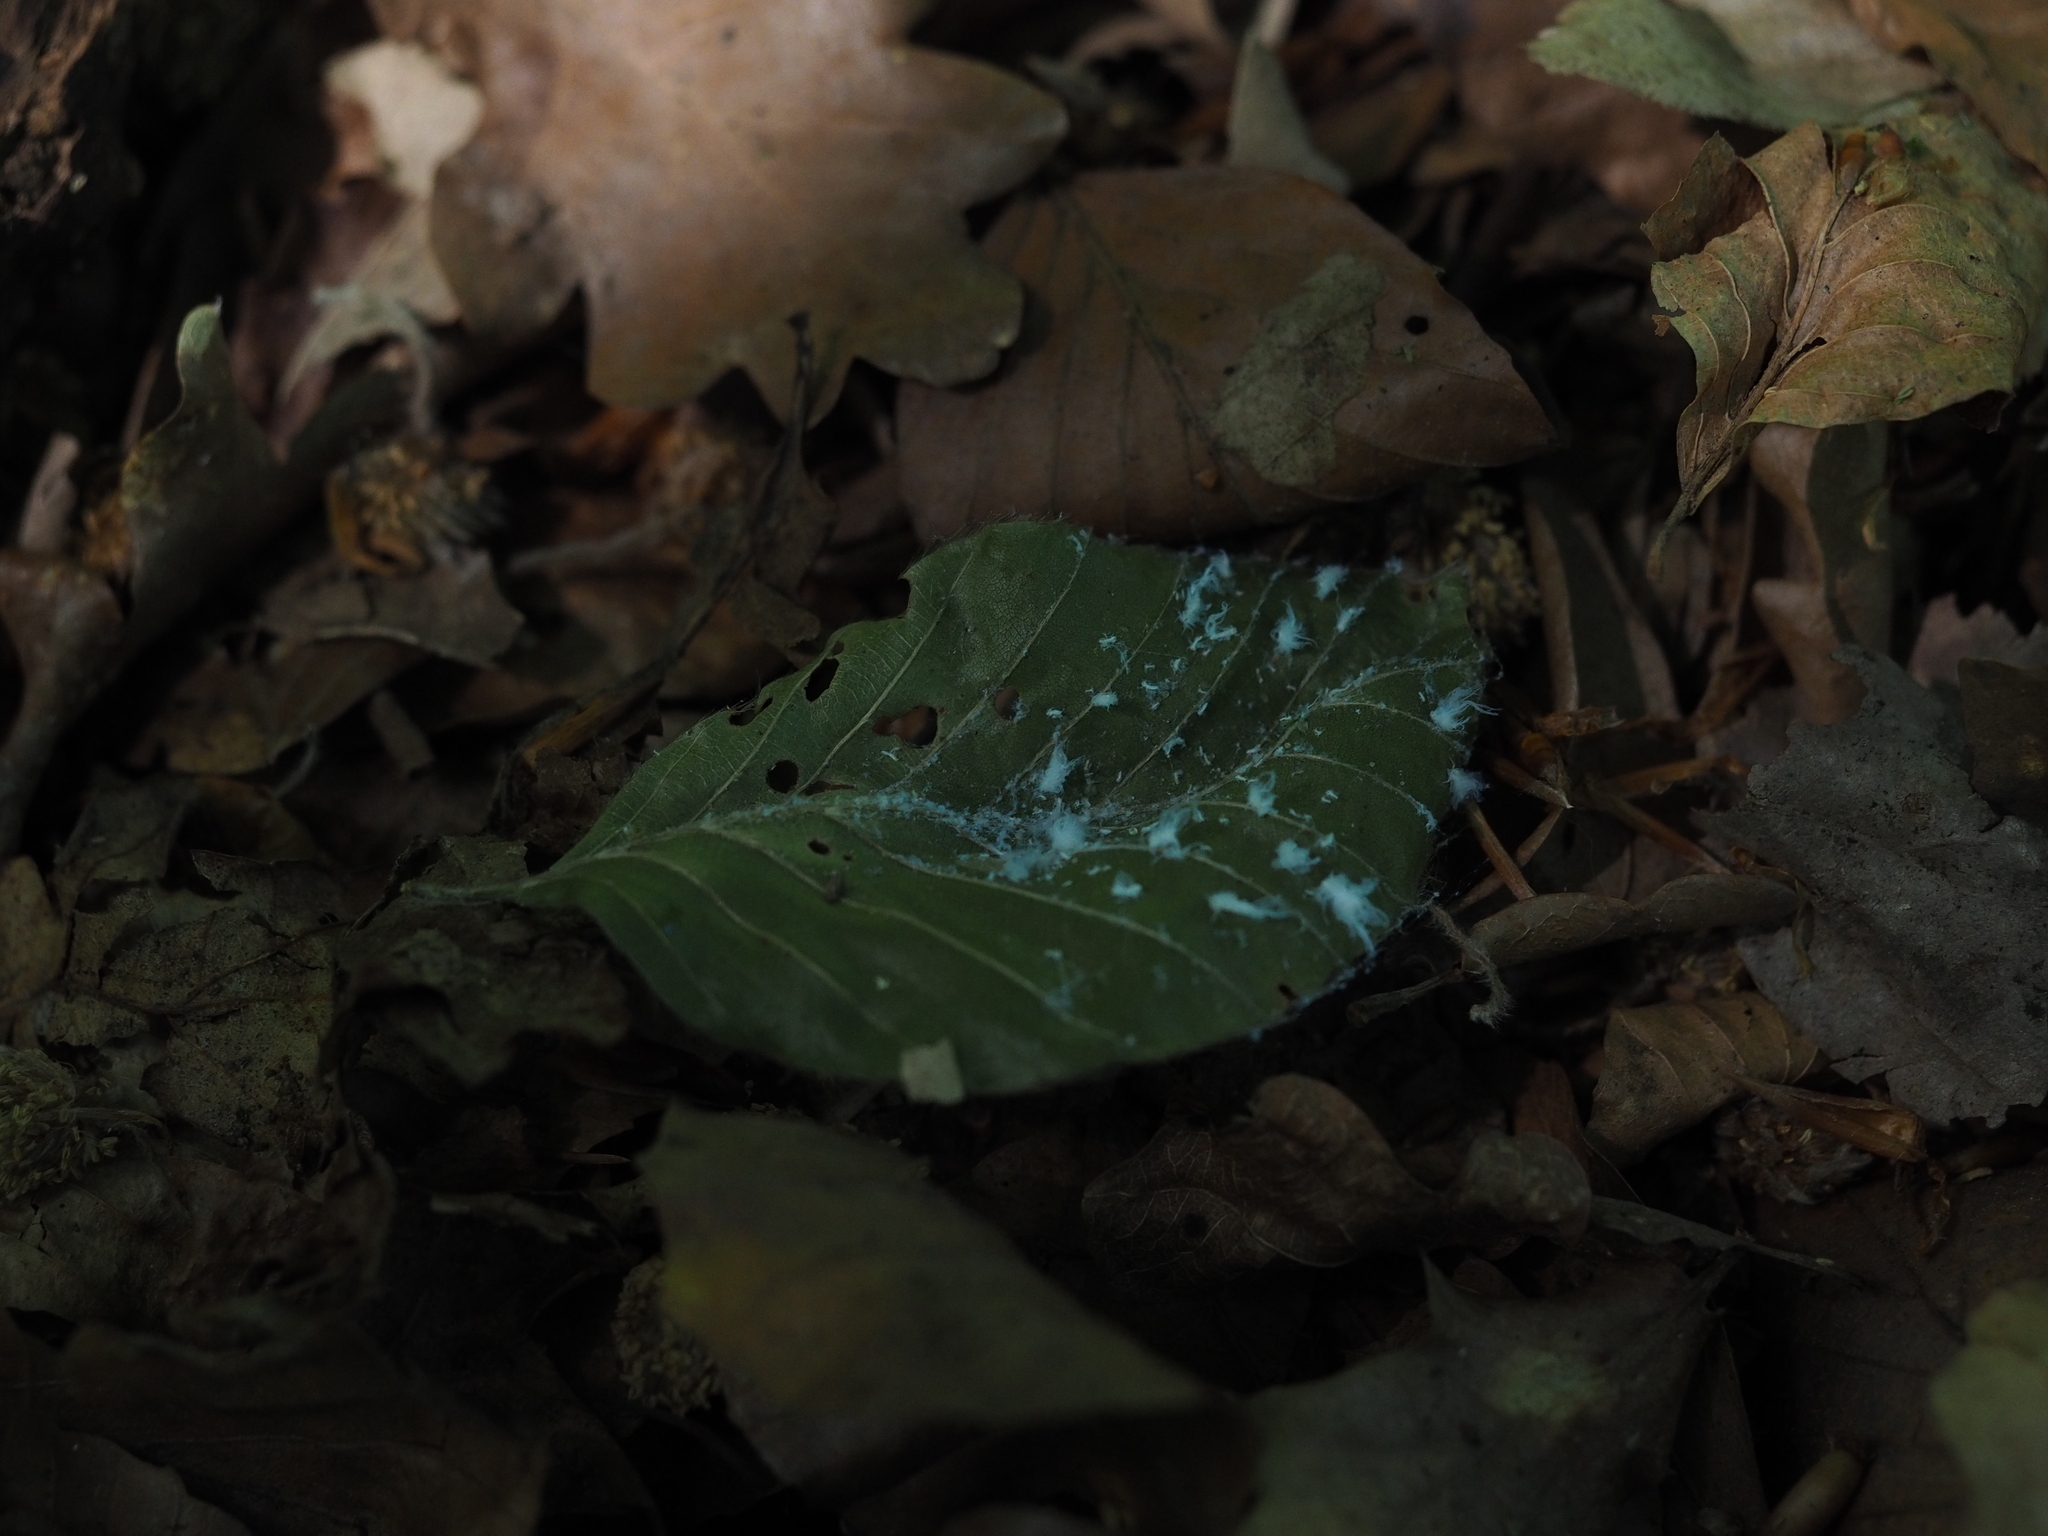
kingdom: Animalia
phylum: Arthropoda
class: Insecta
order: Hemiptera
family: Aphididae
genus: Phyllaphis
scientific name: Phyllaphis fagi
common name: Beech aphid
